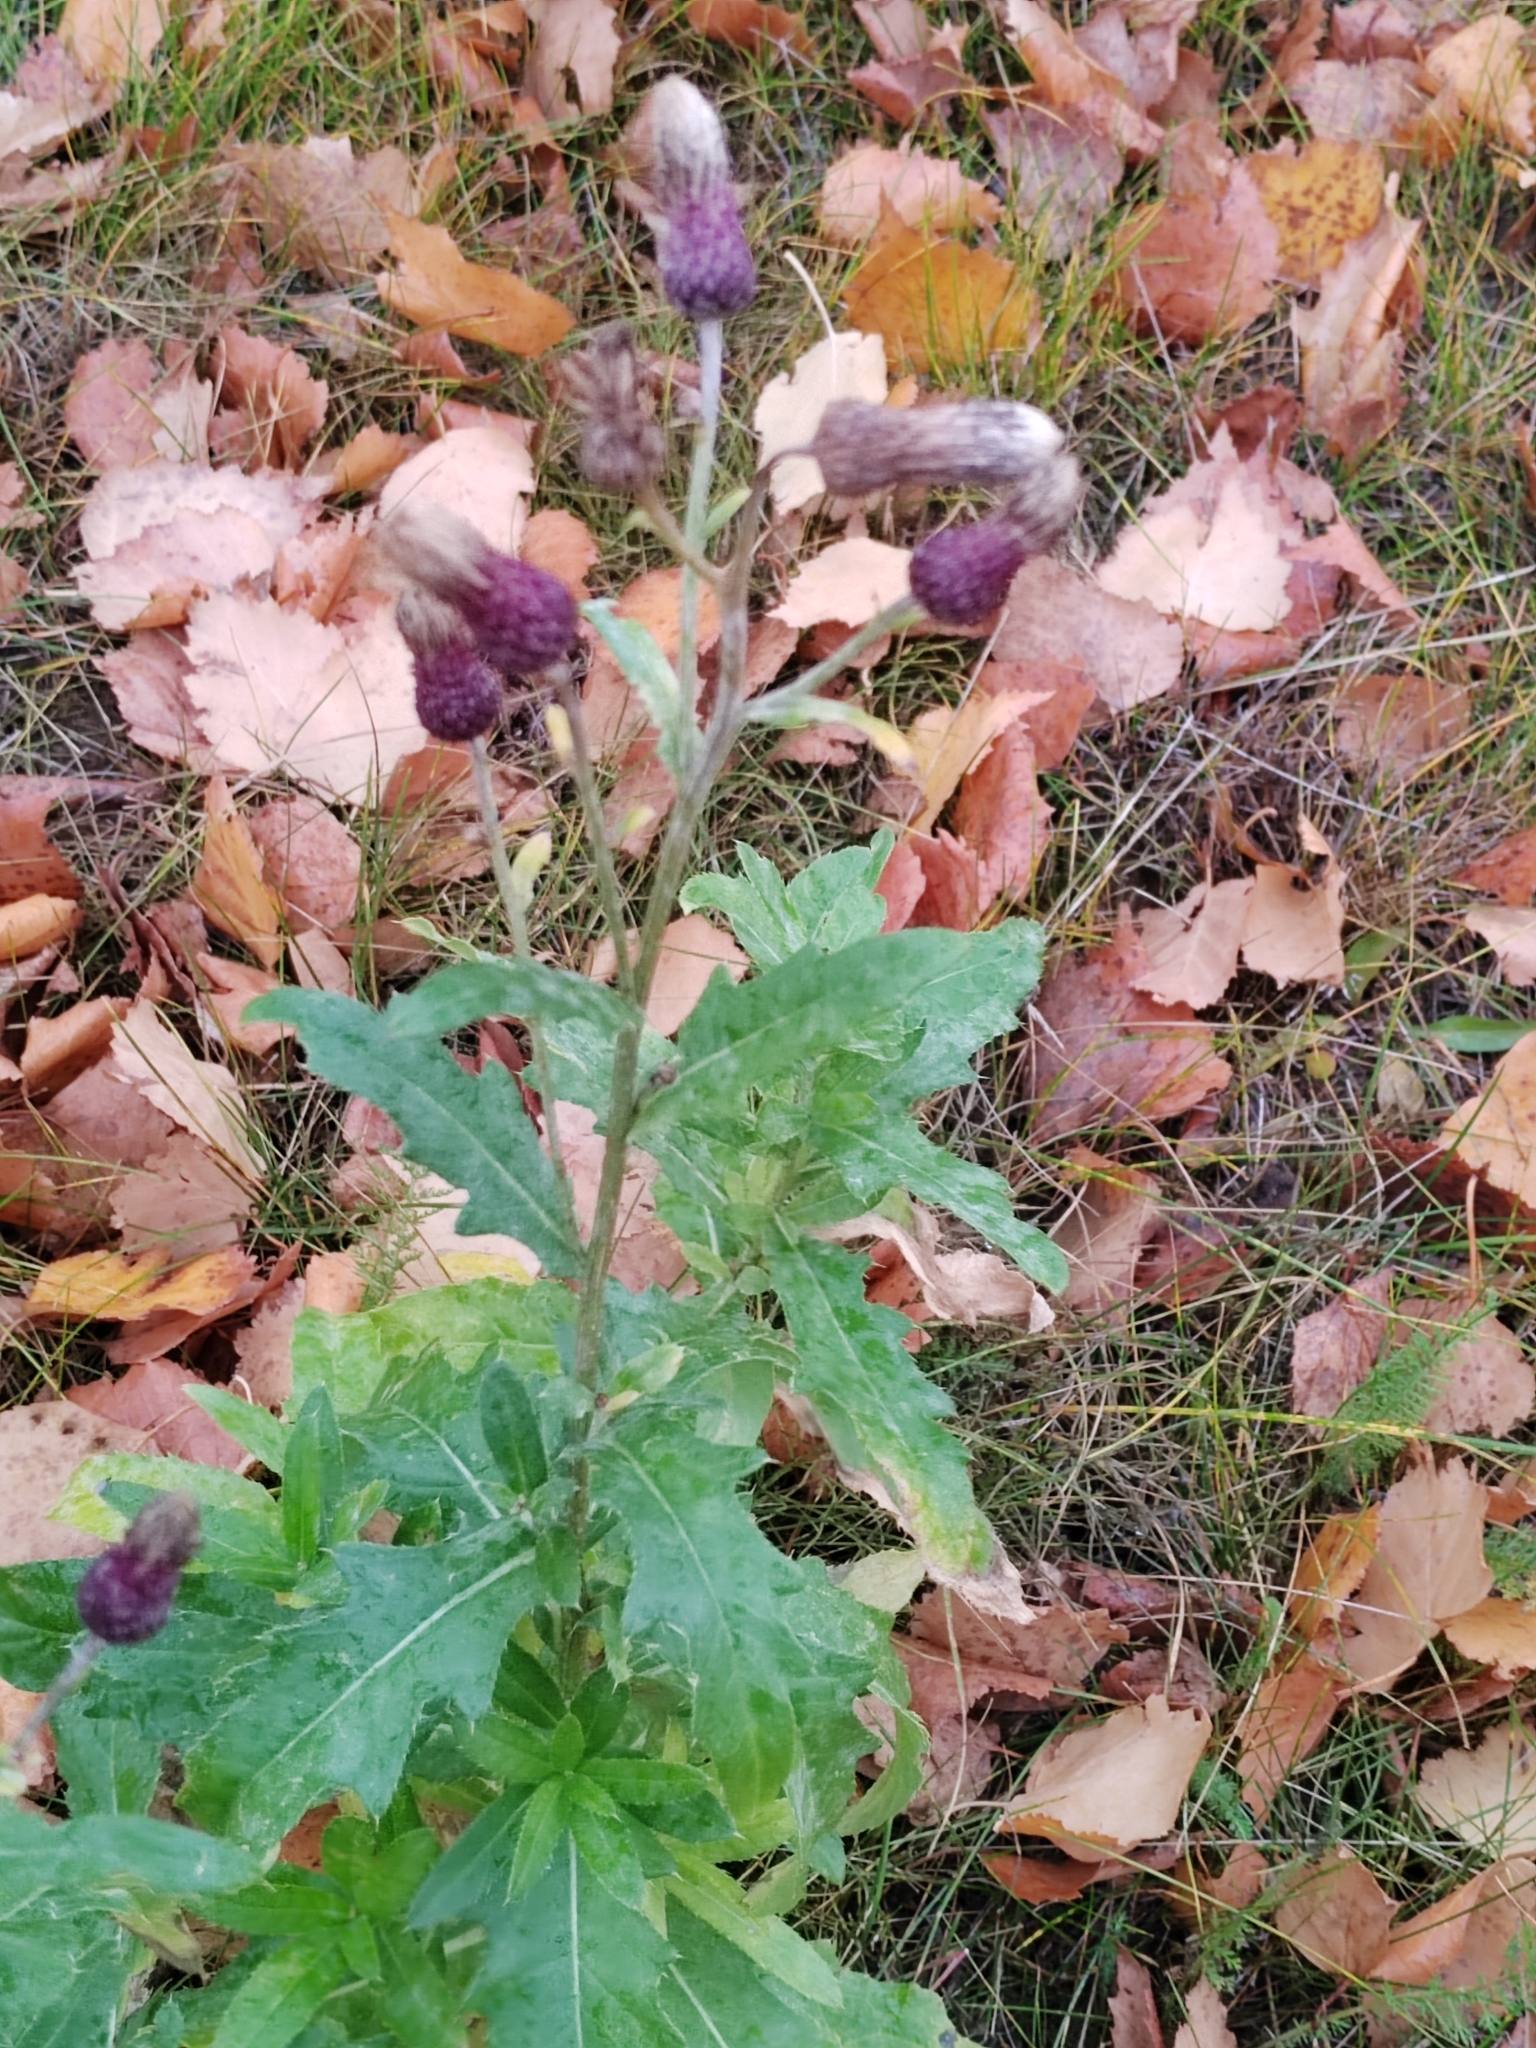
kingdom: Plantae
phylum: Tracheophyta
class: Magnoliopsida
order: Asterales
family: Asteraceae
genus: Cirsium
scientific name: Cirsium arvense
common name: Creeping thistle
